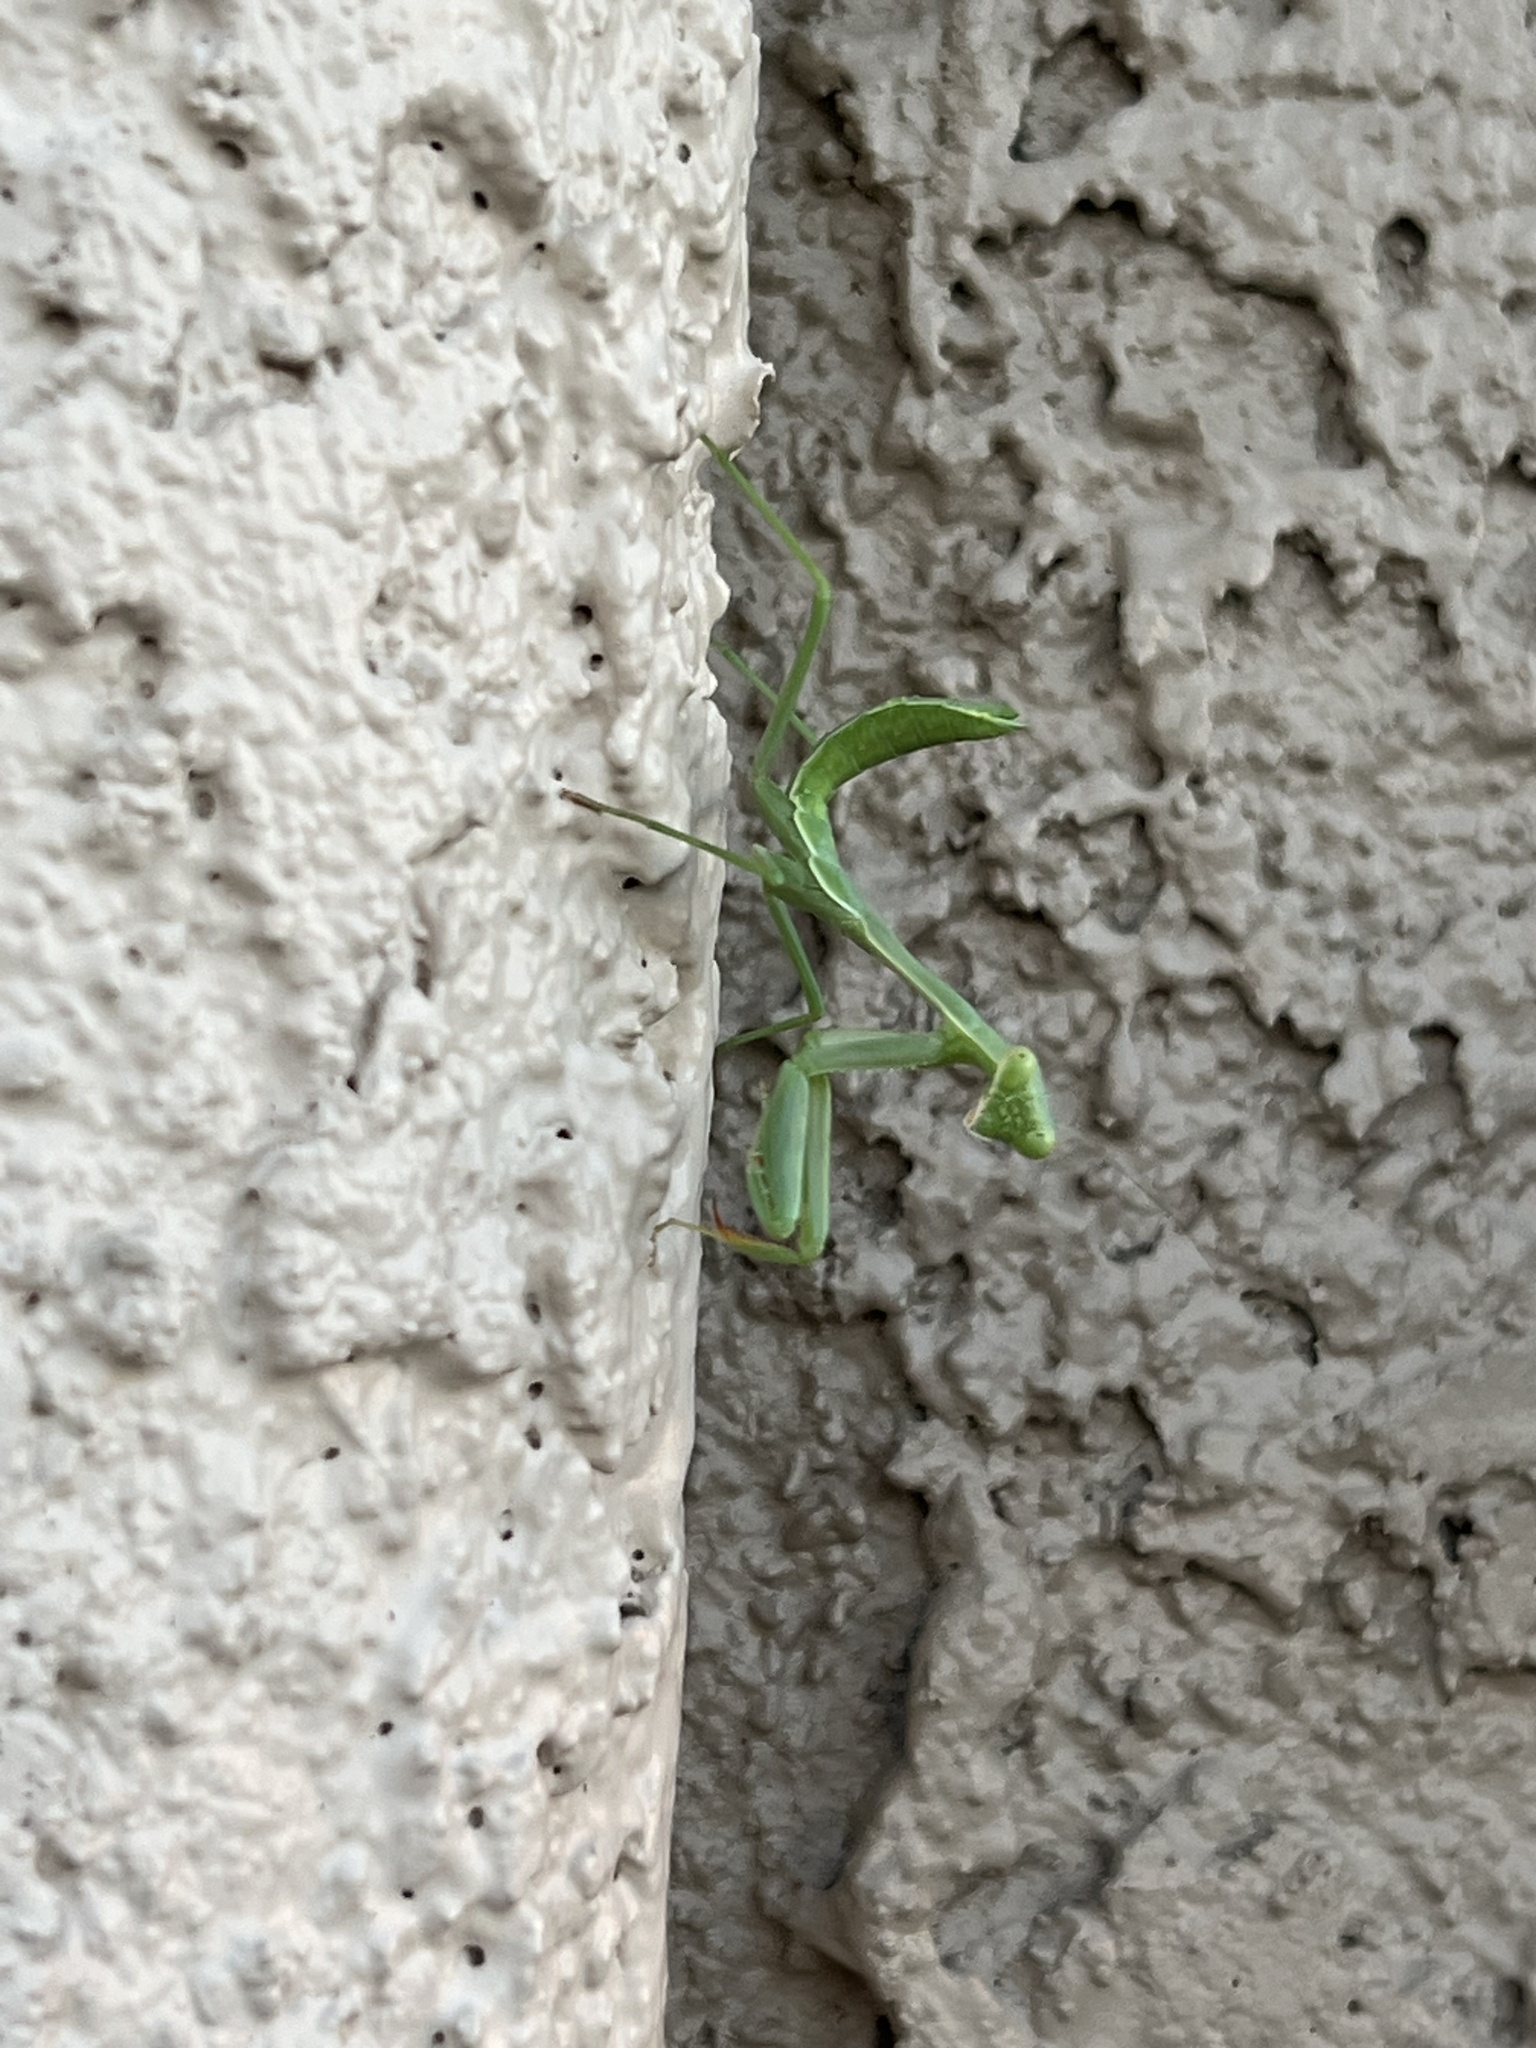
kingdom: Animalia
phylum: Arthropoda
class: Insecta
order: Mantodea
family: Mantidae
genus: Stagmomantis
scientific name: Stagmomantis limbata
